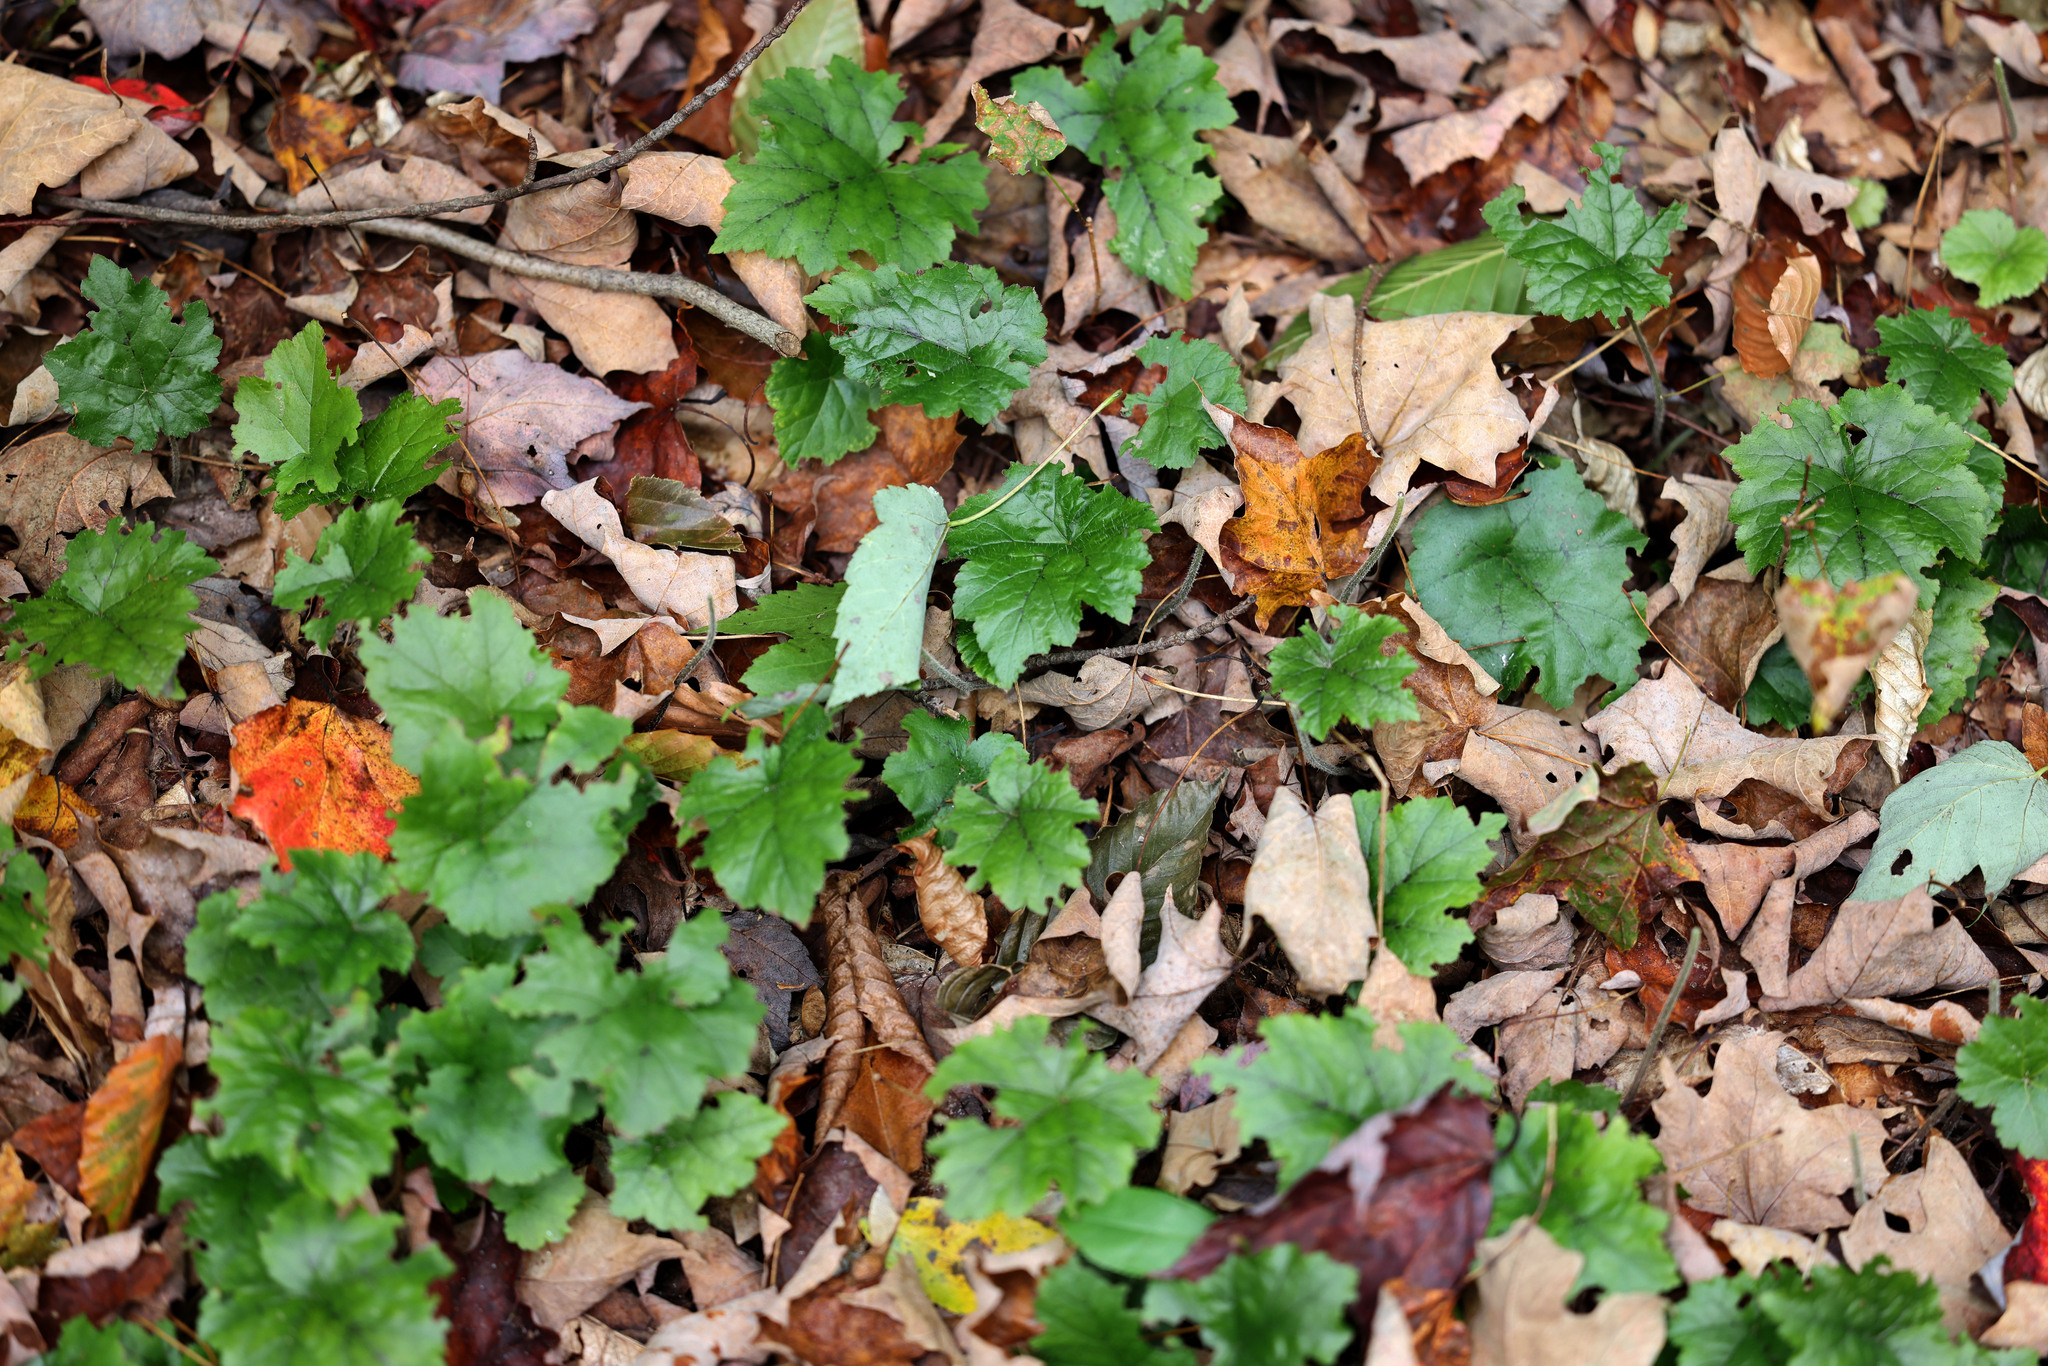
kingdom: Plantae
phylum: Tracheophyta
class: Magnoliopsida
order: Saxifragales
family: Saxifragaceae
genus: Tiarella
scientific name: Tiarella stolonifera
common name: Stoloniferous foamflower
